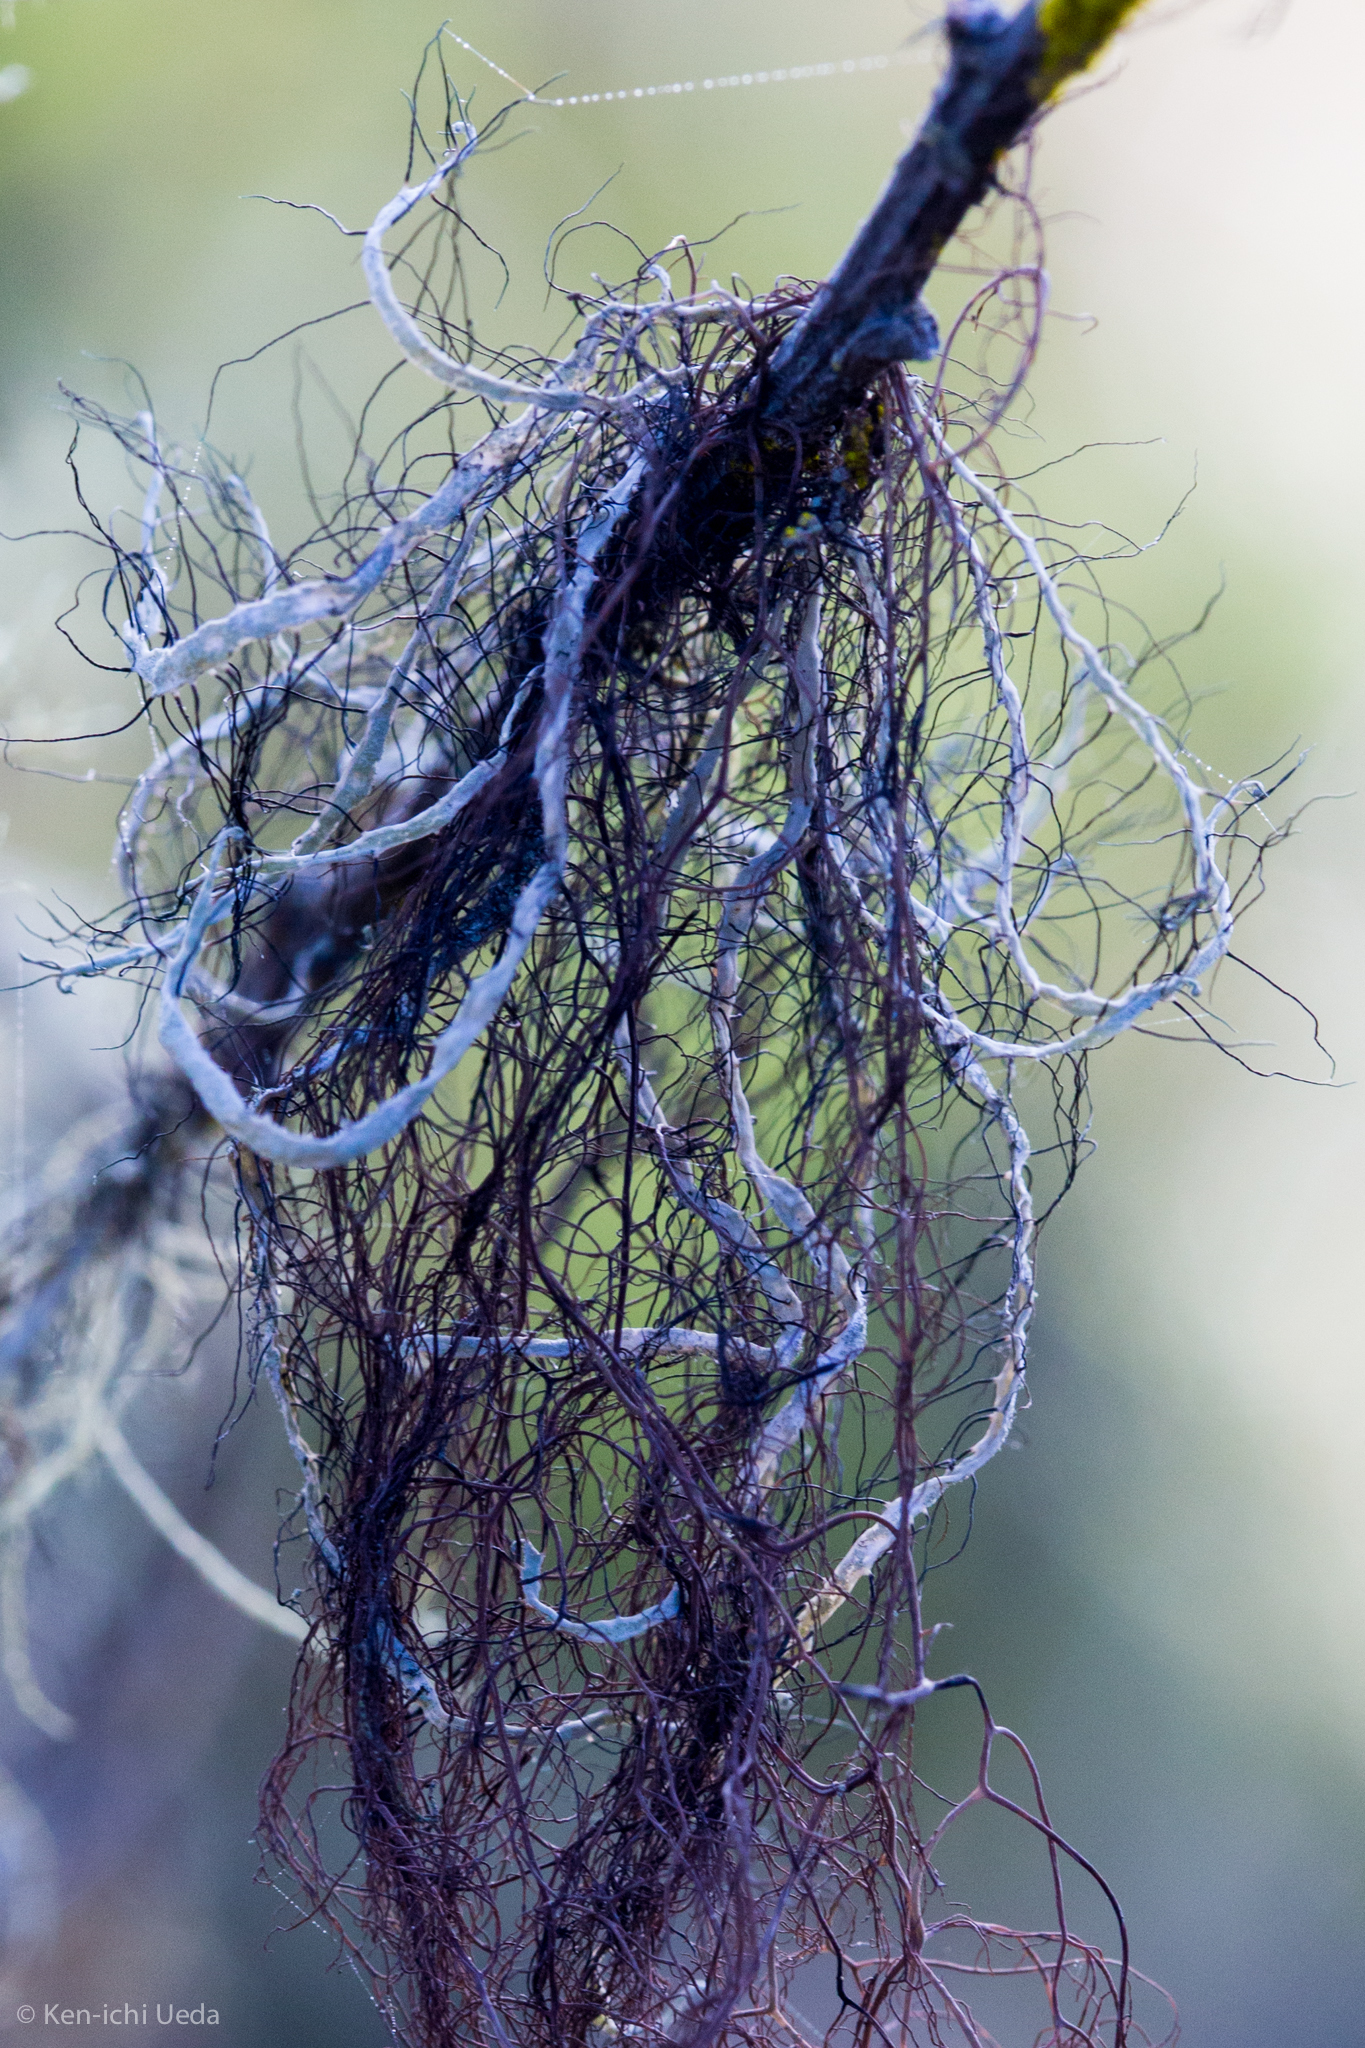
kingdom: Fungi
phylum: Ascomycota
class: Lecanoromycetes
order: Caliciales
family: Physciaceae
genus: Leucodermia
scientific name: Leucodermia leucomelos
